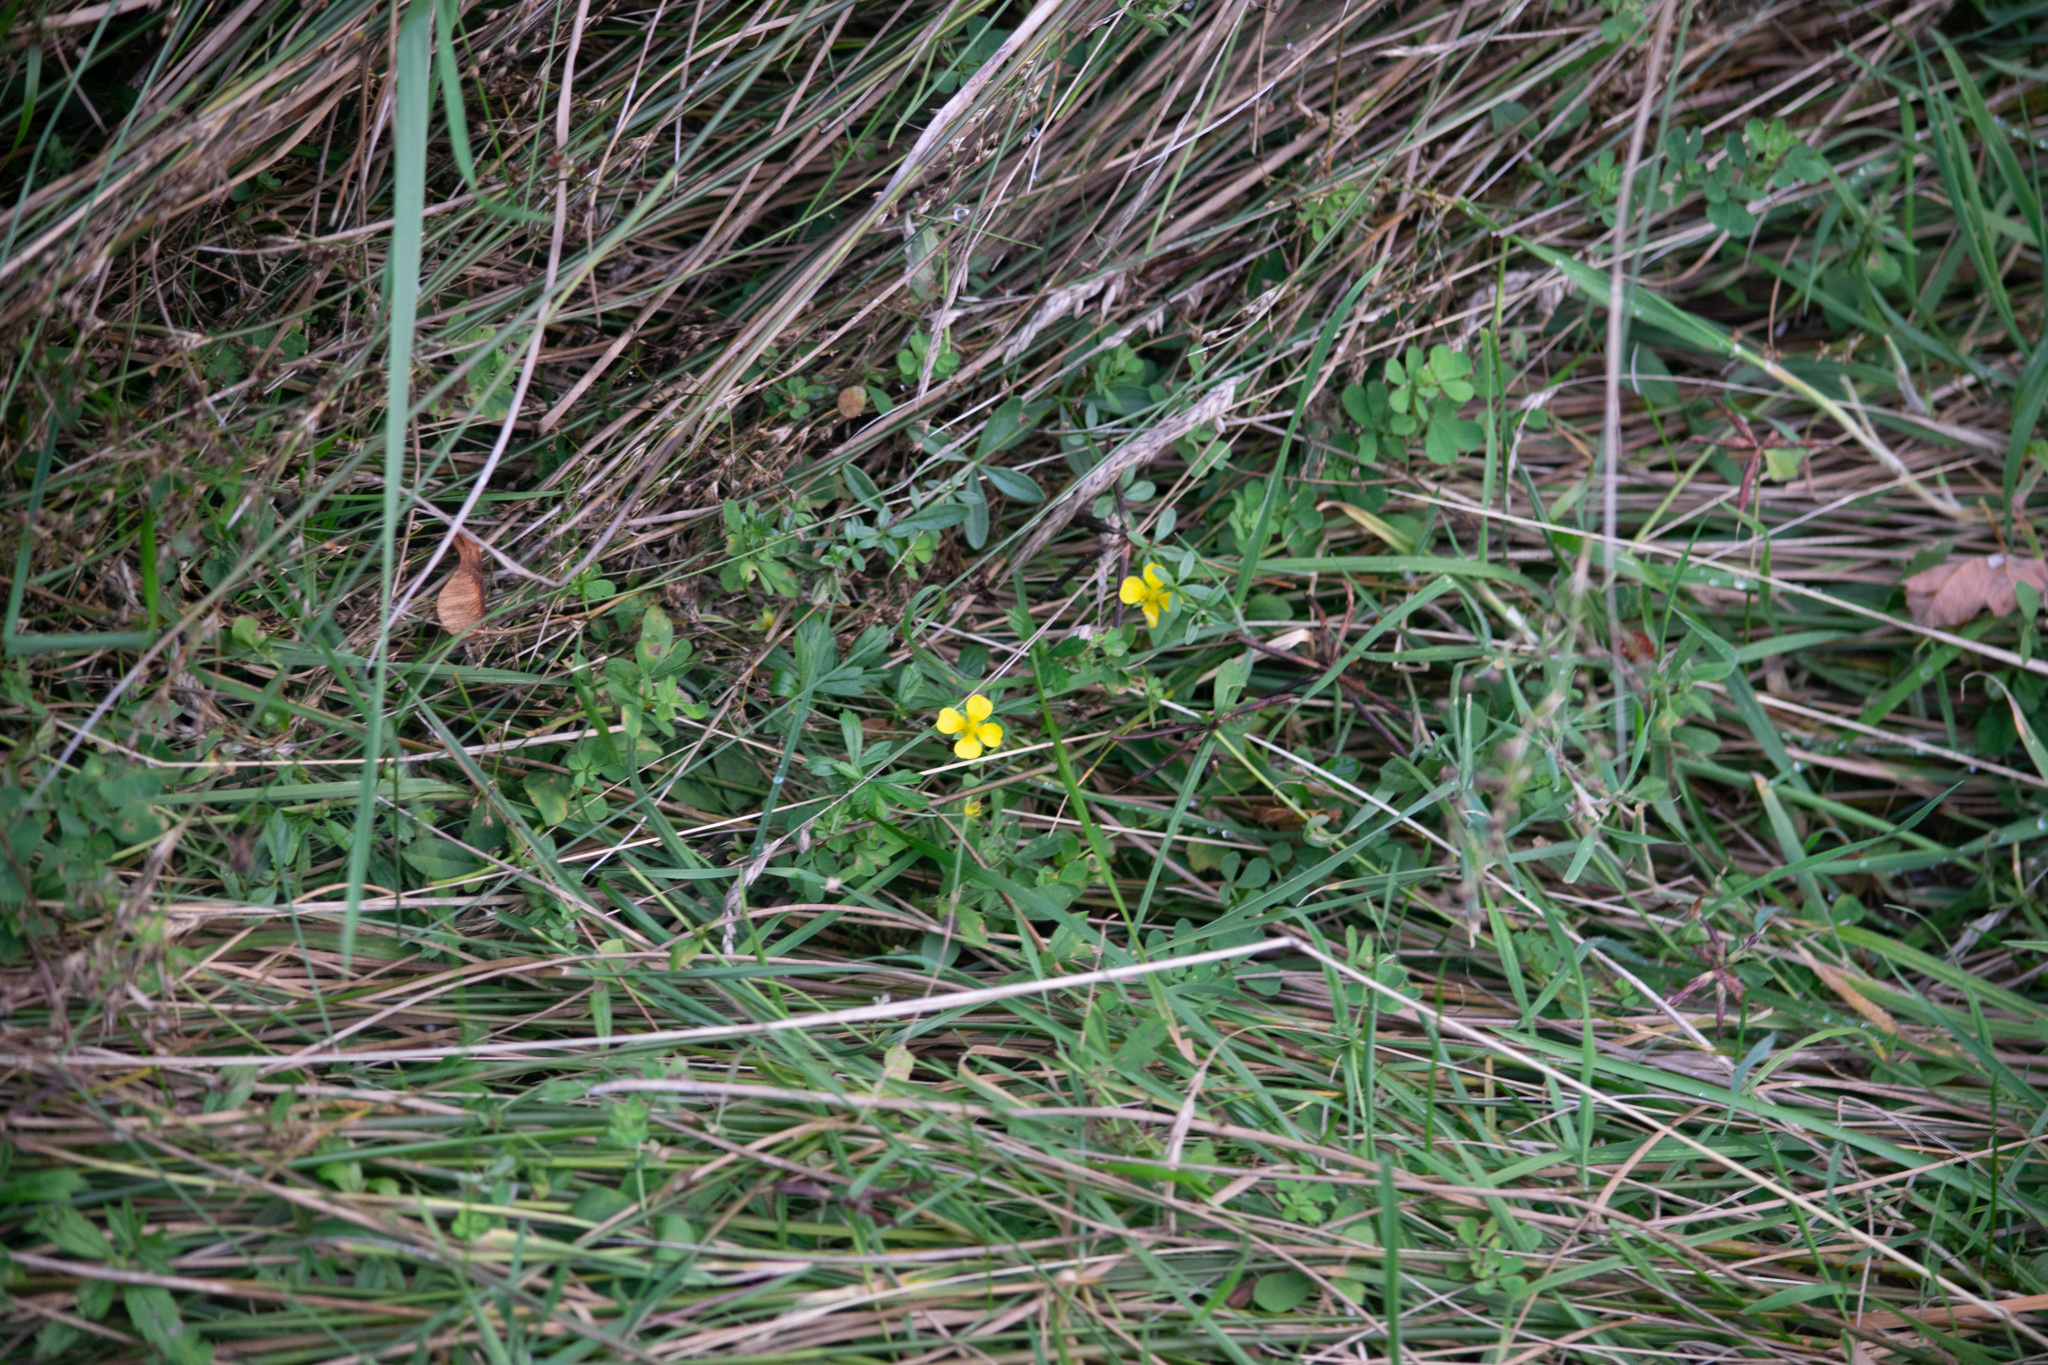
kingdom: Plantae
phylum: Tracheophyta
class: Magnoliopsida
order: Rosales
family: Rosaceae
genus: Potentilla
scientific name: Potentilla erecta
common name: Tormentil
